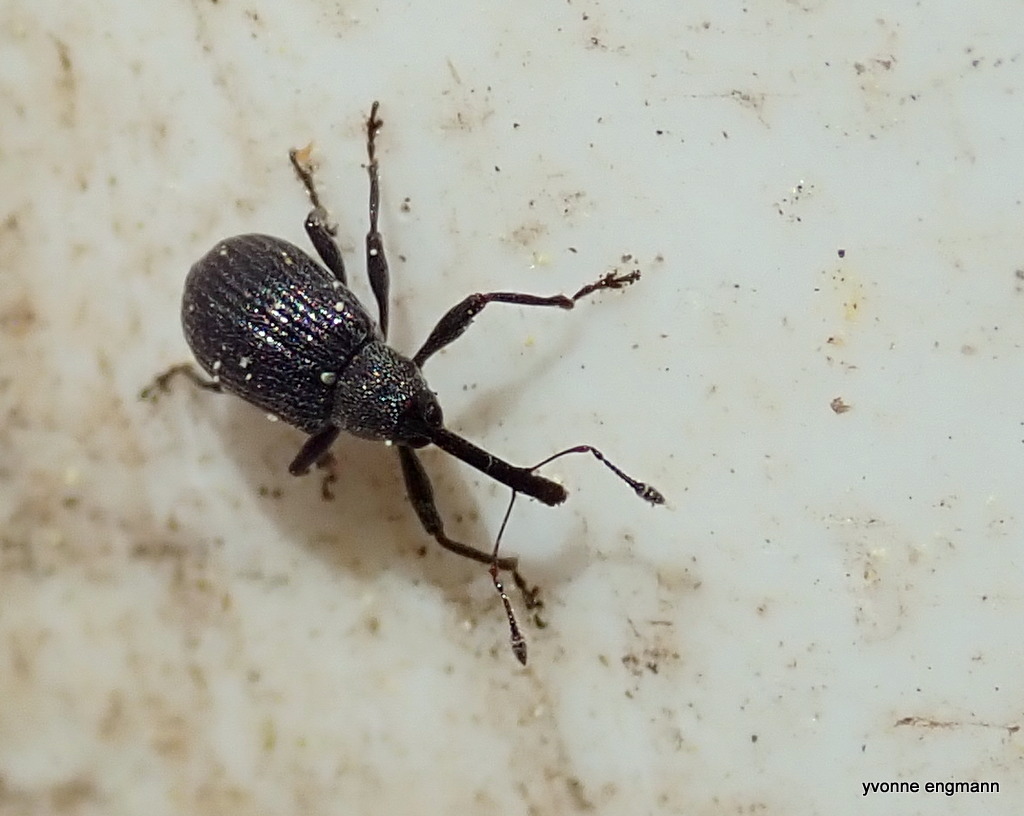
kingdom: Animalia
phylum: Arthropoda
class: Insecta
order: Coleoptera
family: Curculionidae
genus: Anthonomus
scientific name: Anthonomus rubi
